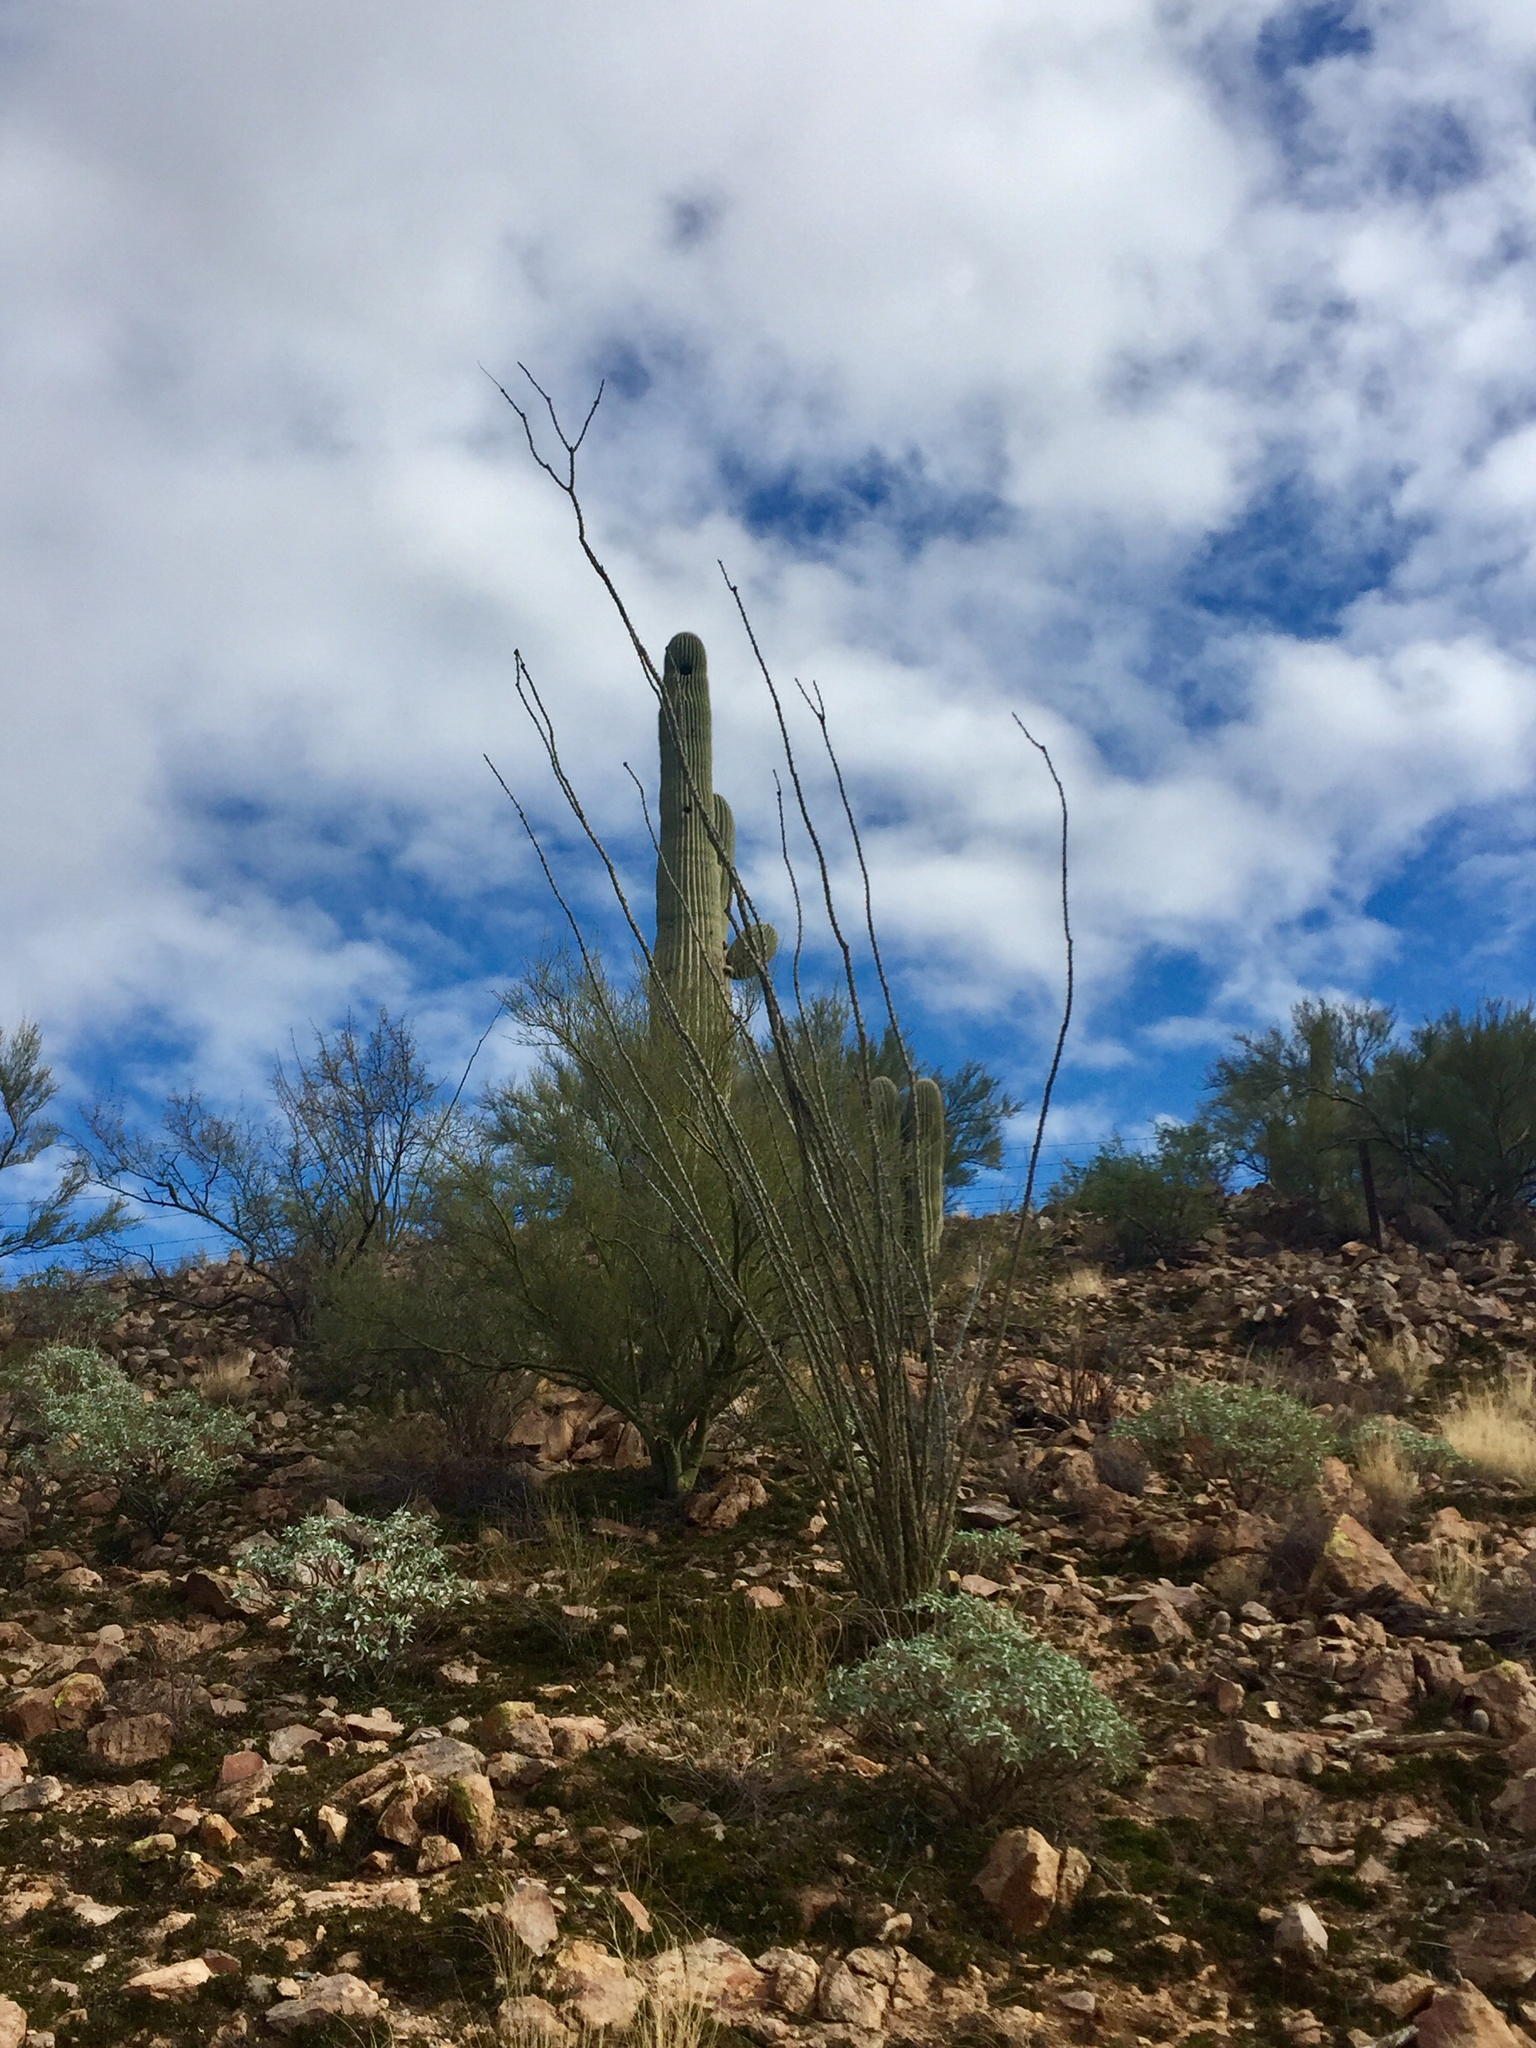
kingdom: Plantae
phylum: Tracheophyta
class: Magnoliopsida
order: Ericales
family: Fouquieriaceae
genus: Fouquieria
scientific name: Fouquieria splendens
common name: Vine-cactus
